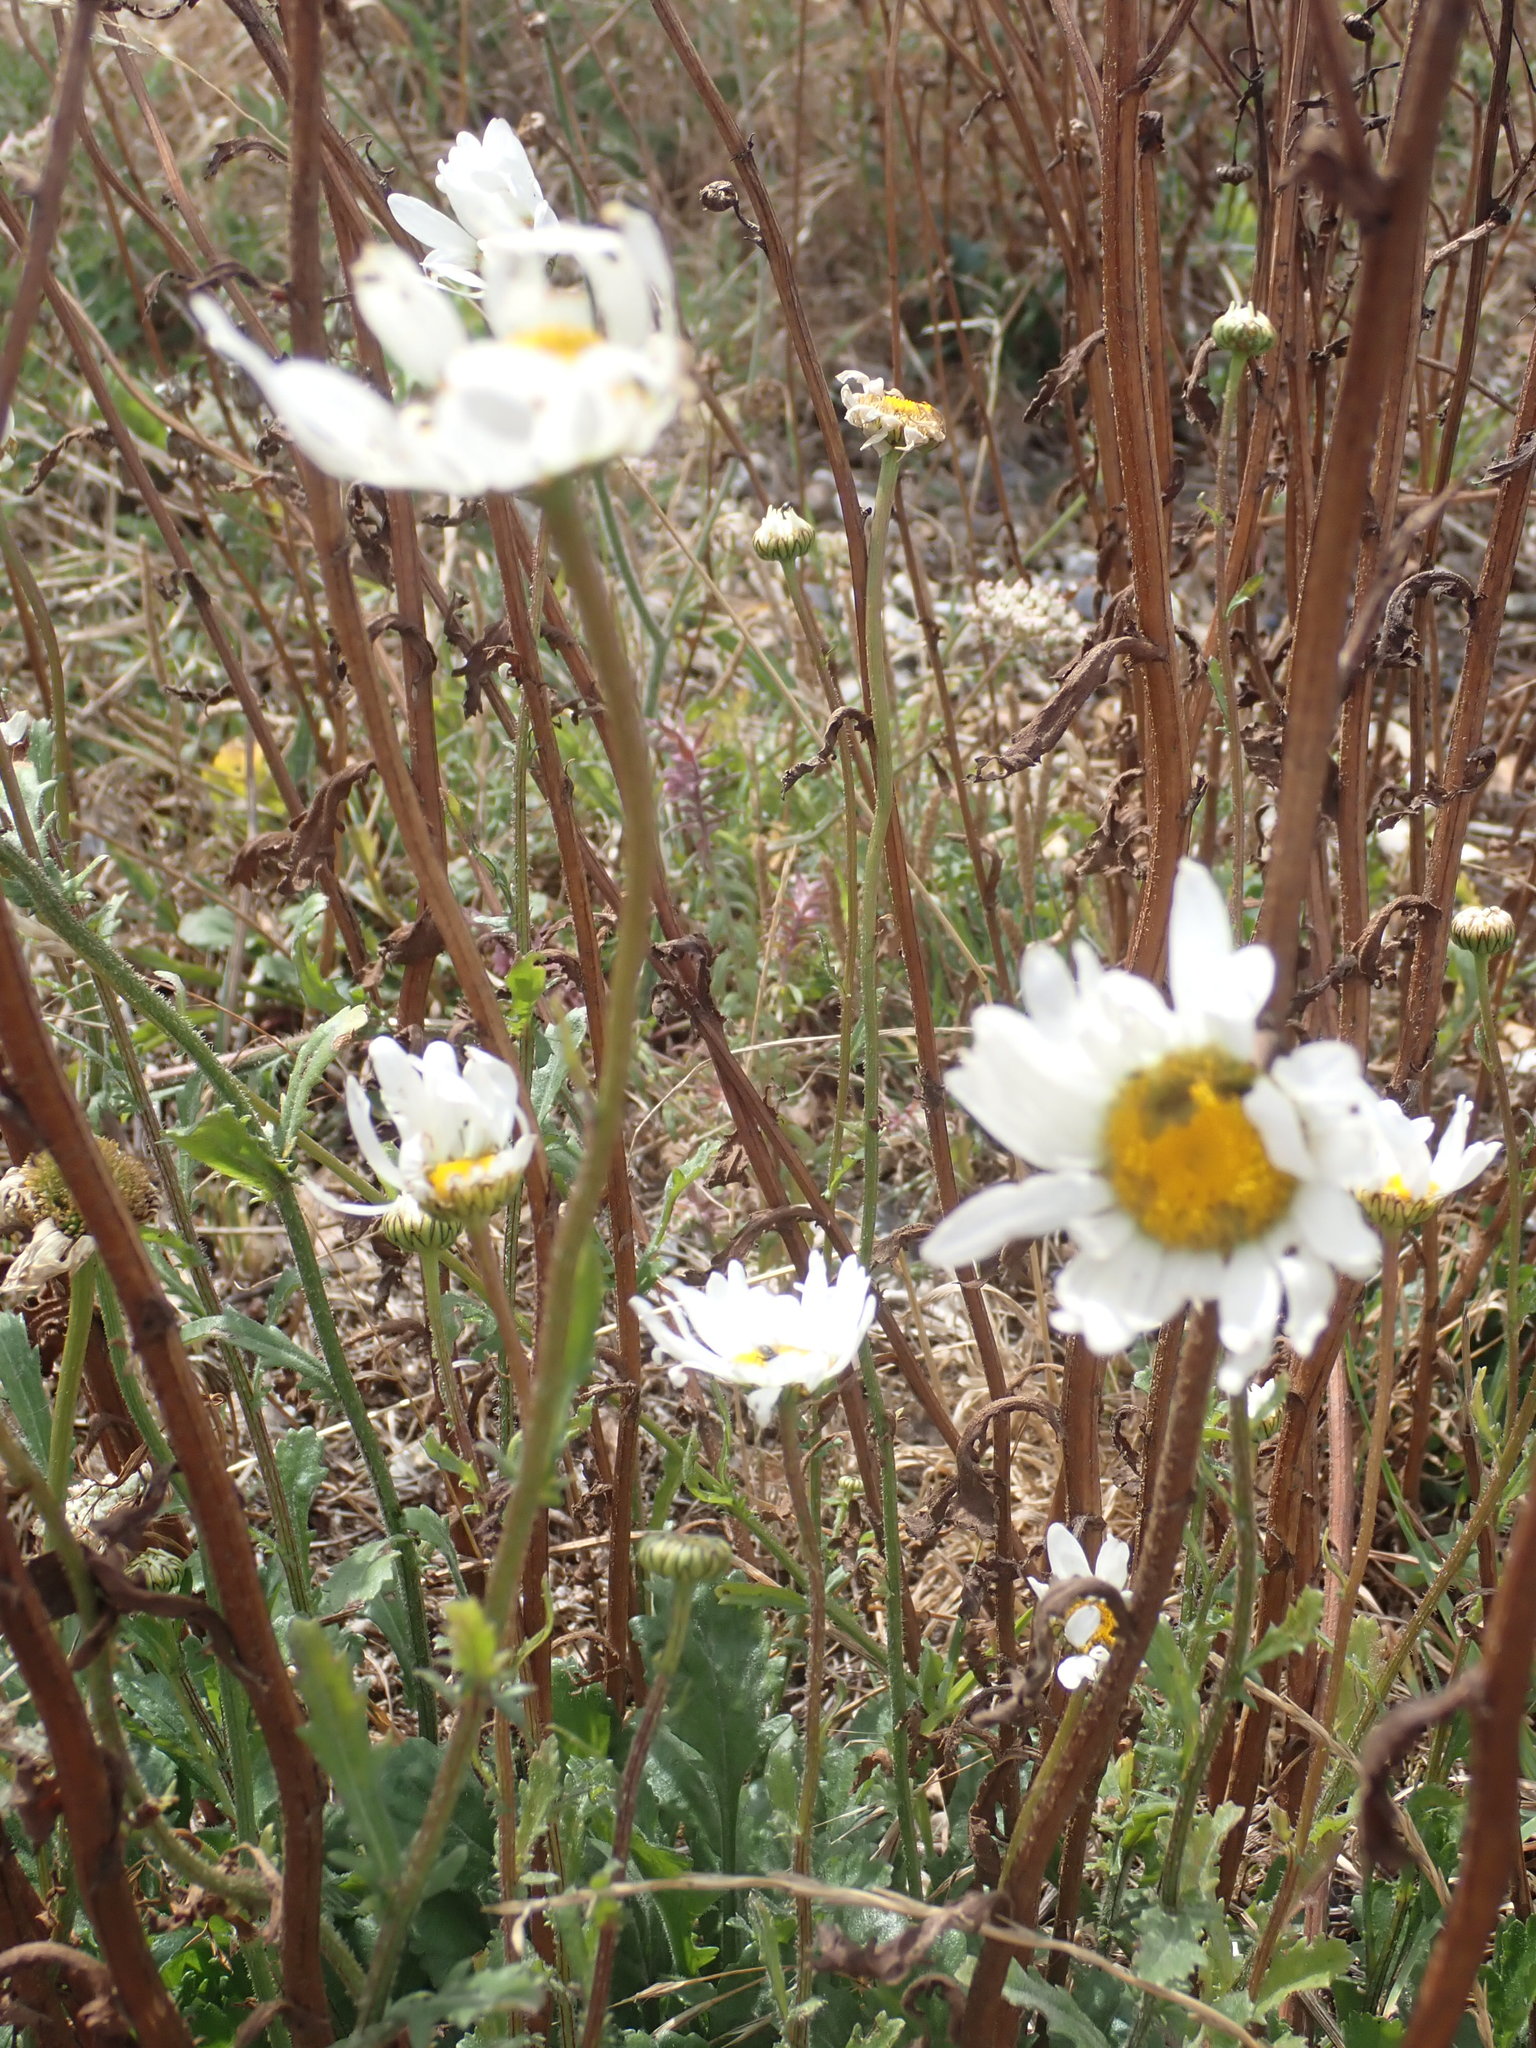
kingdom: Plantae
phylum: Tracheophyta
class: Magnoliopsida
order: Asterales
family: Asteraceae
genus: Leucanthemum
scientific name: Leucanthemum vulgare
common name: Oxeye daisy
